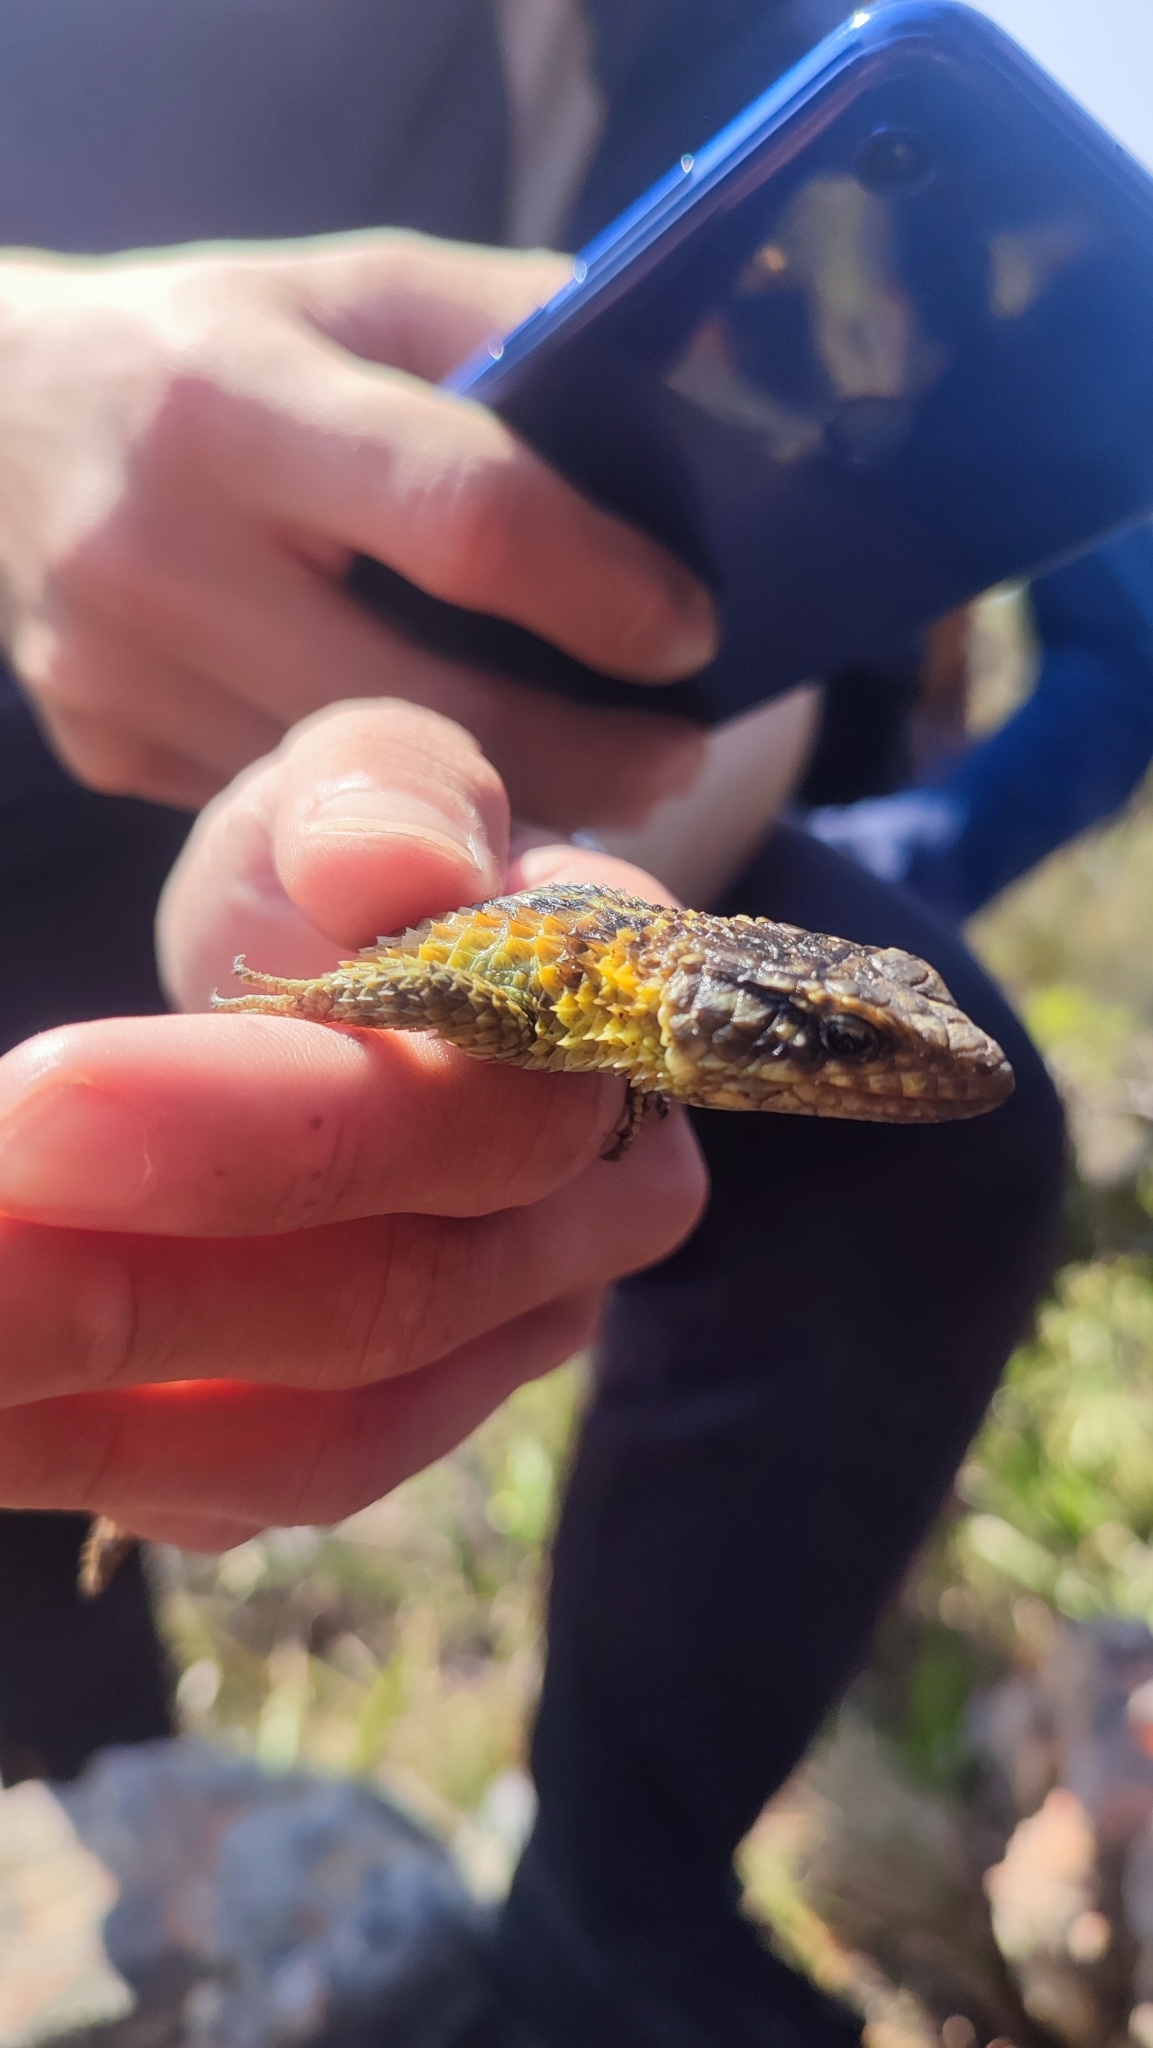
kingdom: Animalia
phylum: Chordata
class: Squamata
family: Cordylidae
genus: Cordylus
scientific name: Cordylus cordylus
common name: Cape girdled lizard
